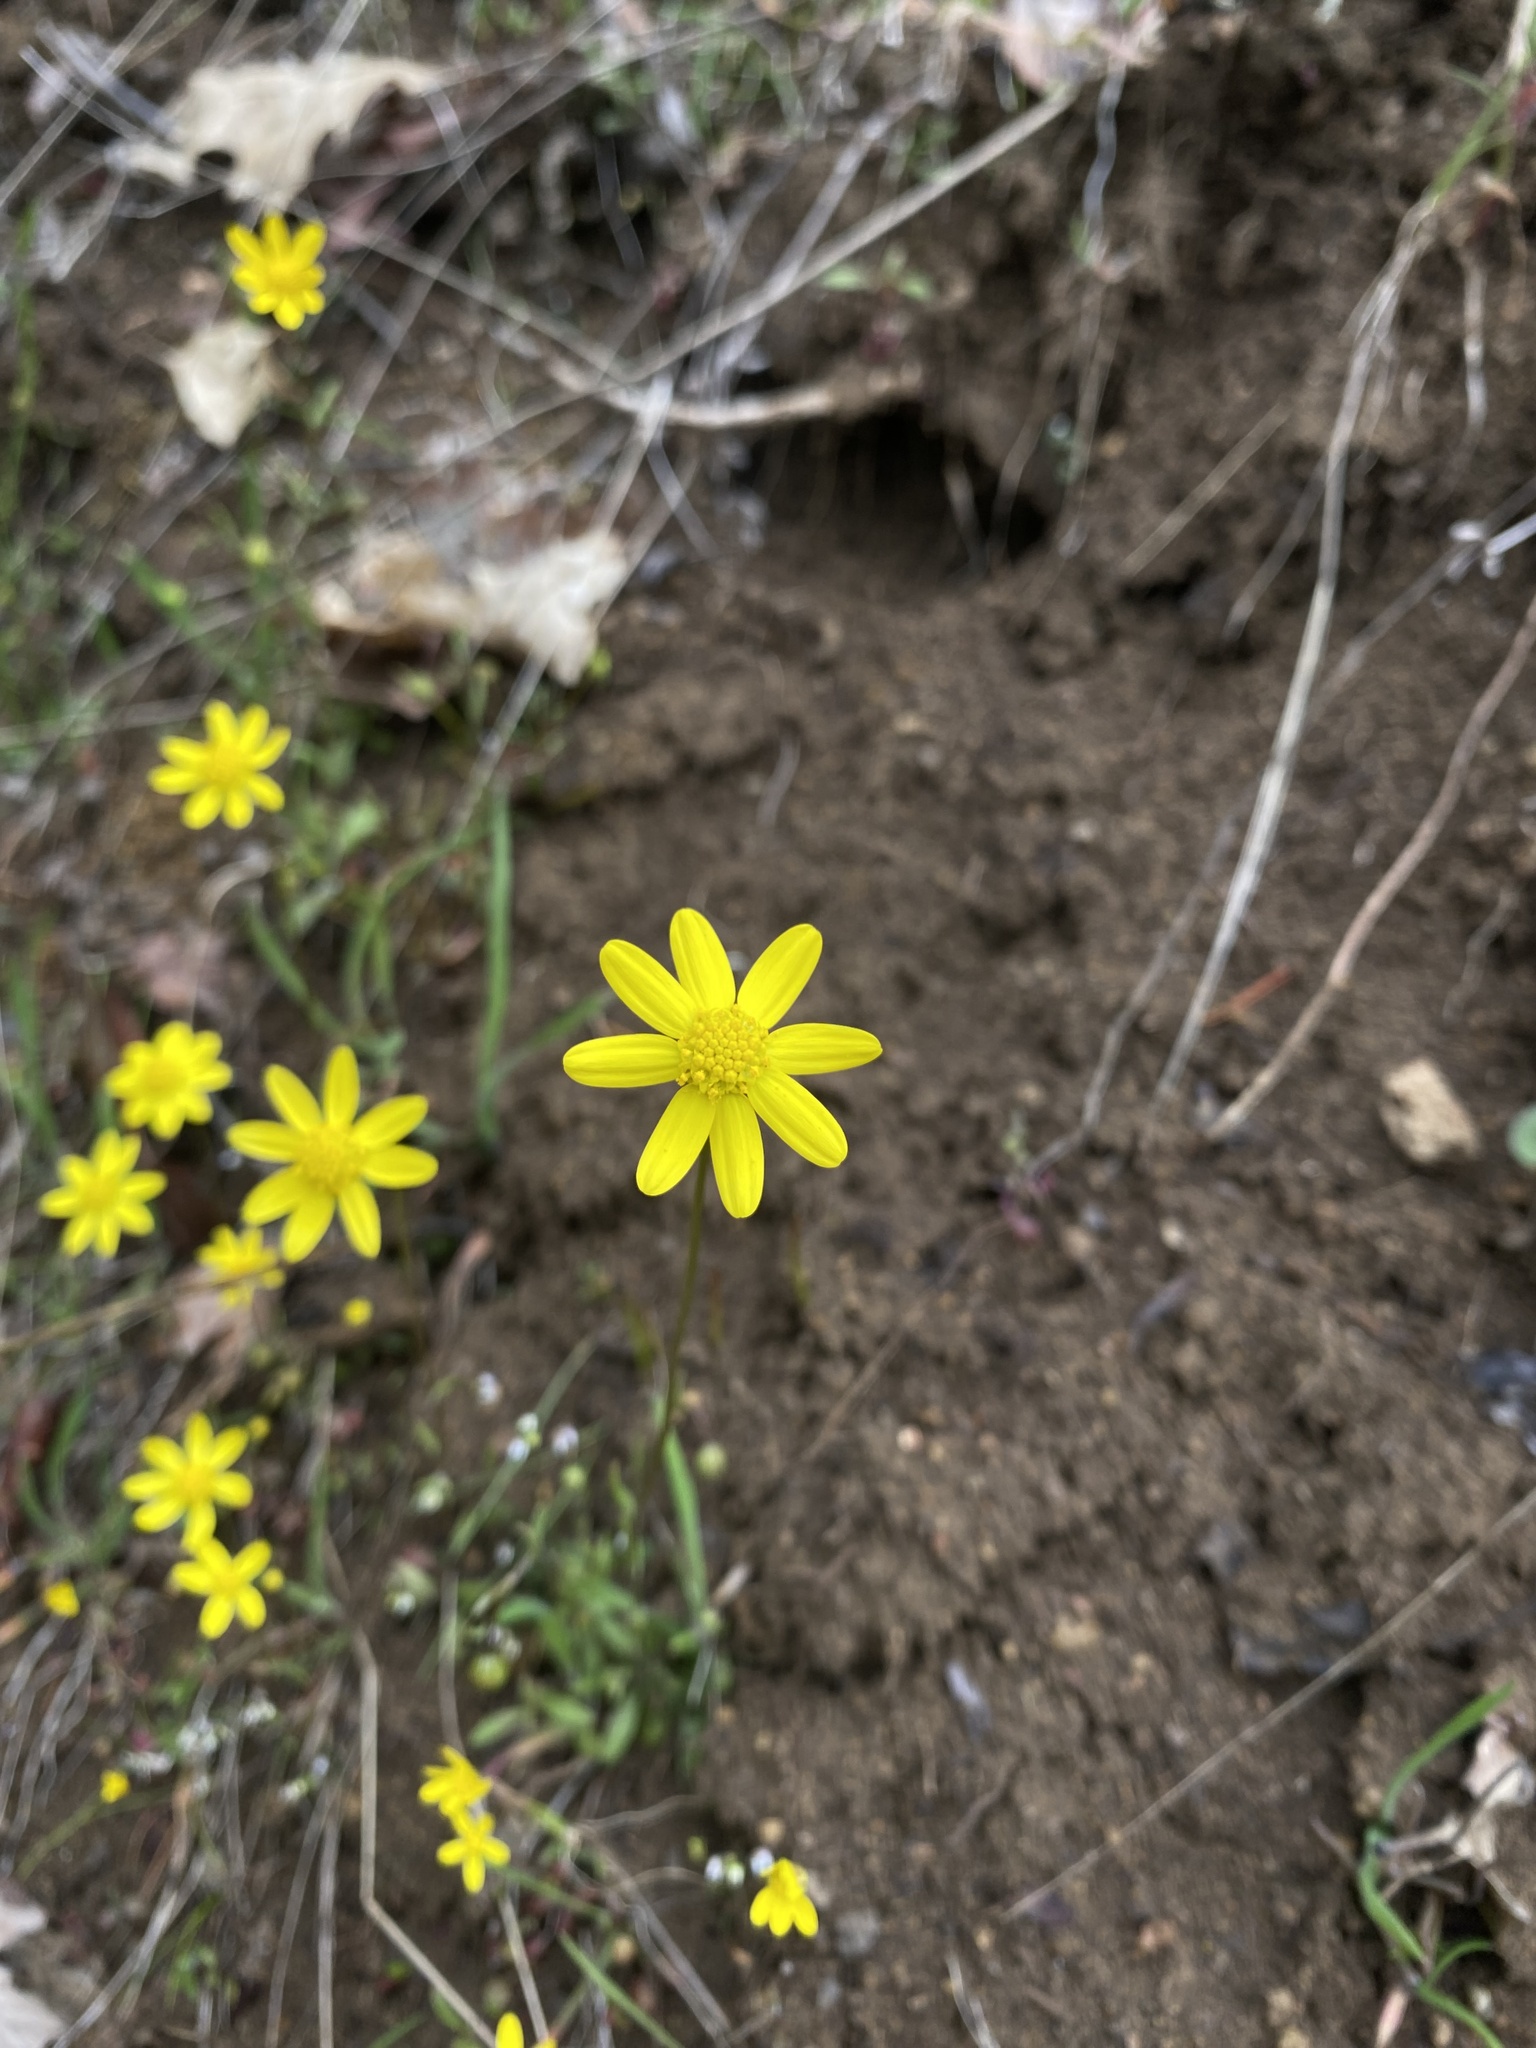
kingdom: Plantae
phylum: Tracheophyta
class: Magnoliopsida
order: Asterales
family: Asteraceae
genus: Crocidium
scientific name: Crocidium multicaule
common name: Common spring gold
